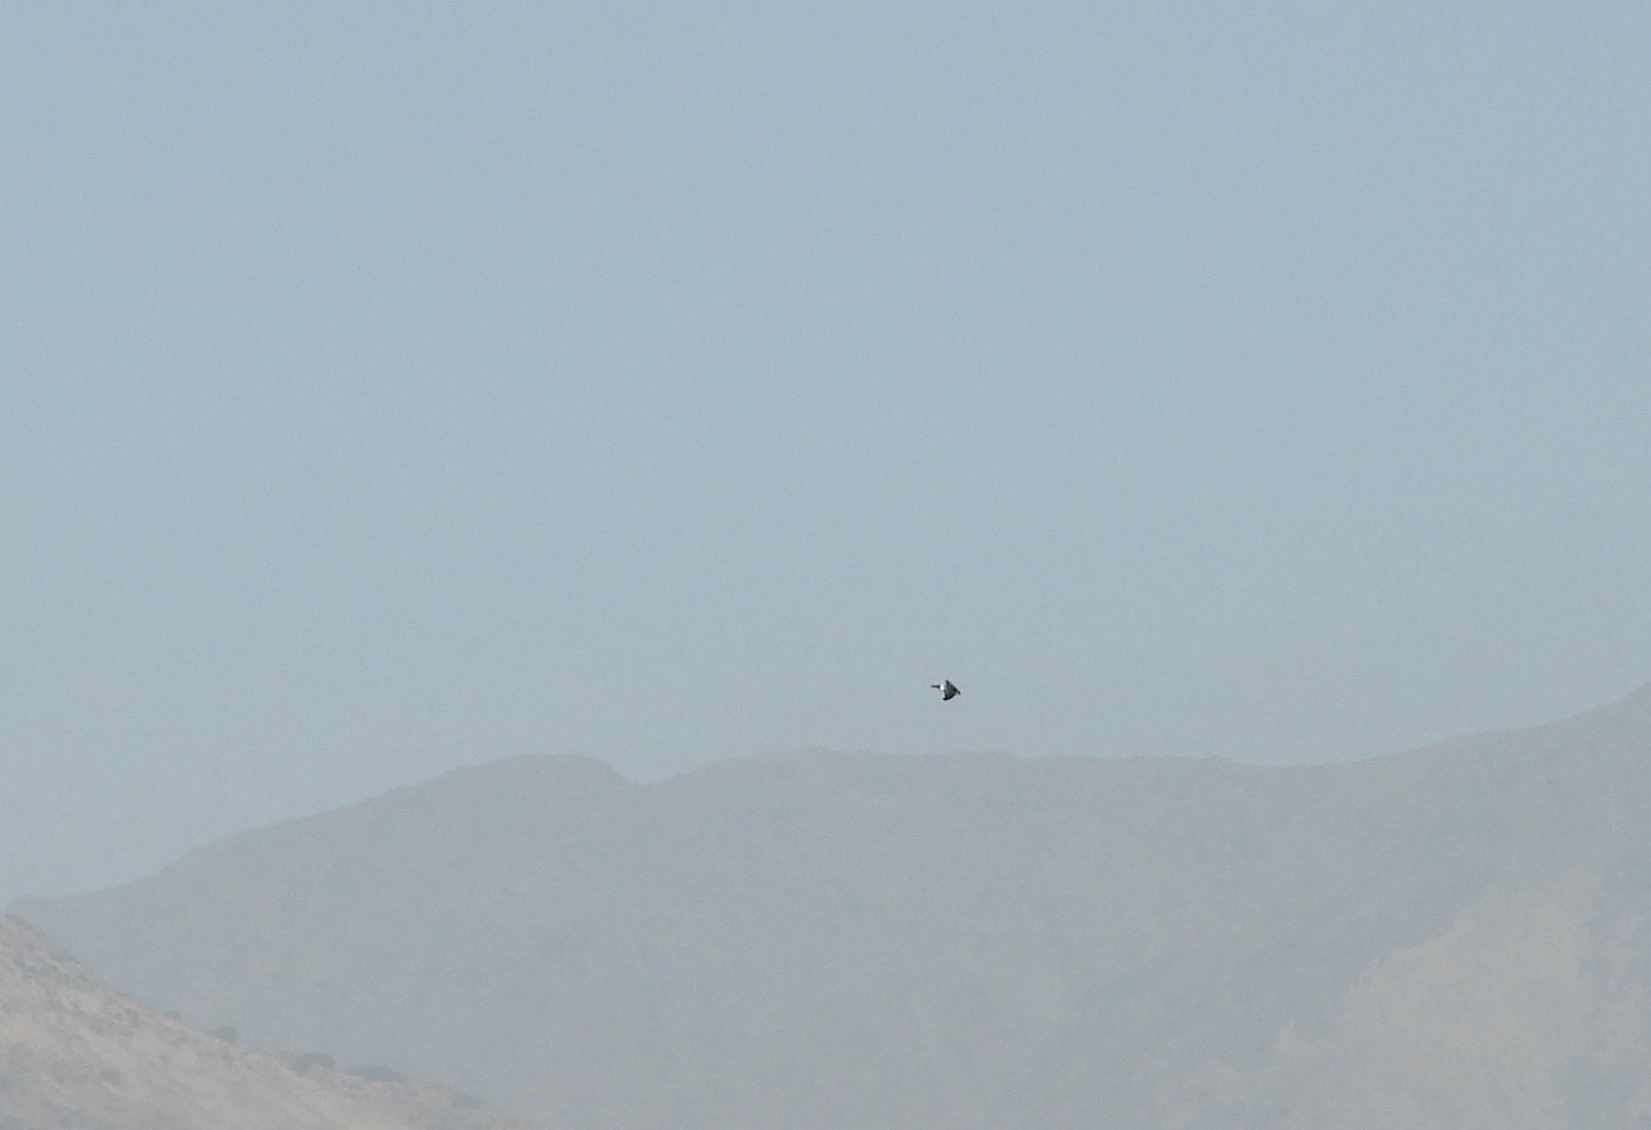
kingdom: Animalia
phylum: Chordata
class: Aves
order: Passeriformes
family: Hirundinidae
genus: Tachycineta
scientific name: Tachycineta leucopyga
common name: Chilean swallow
